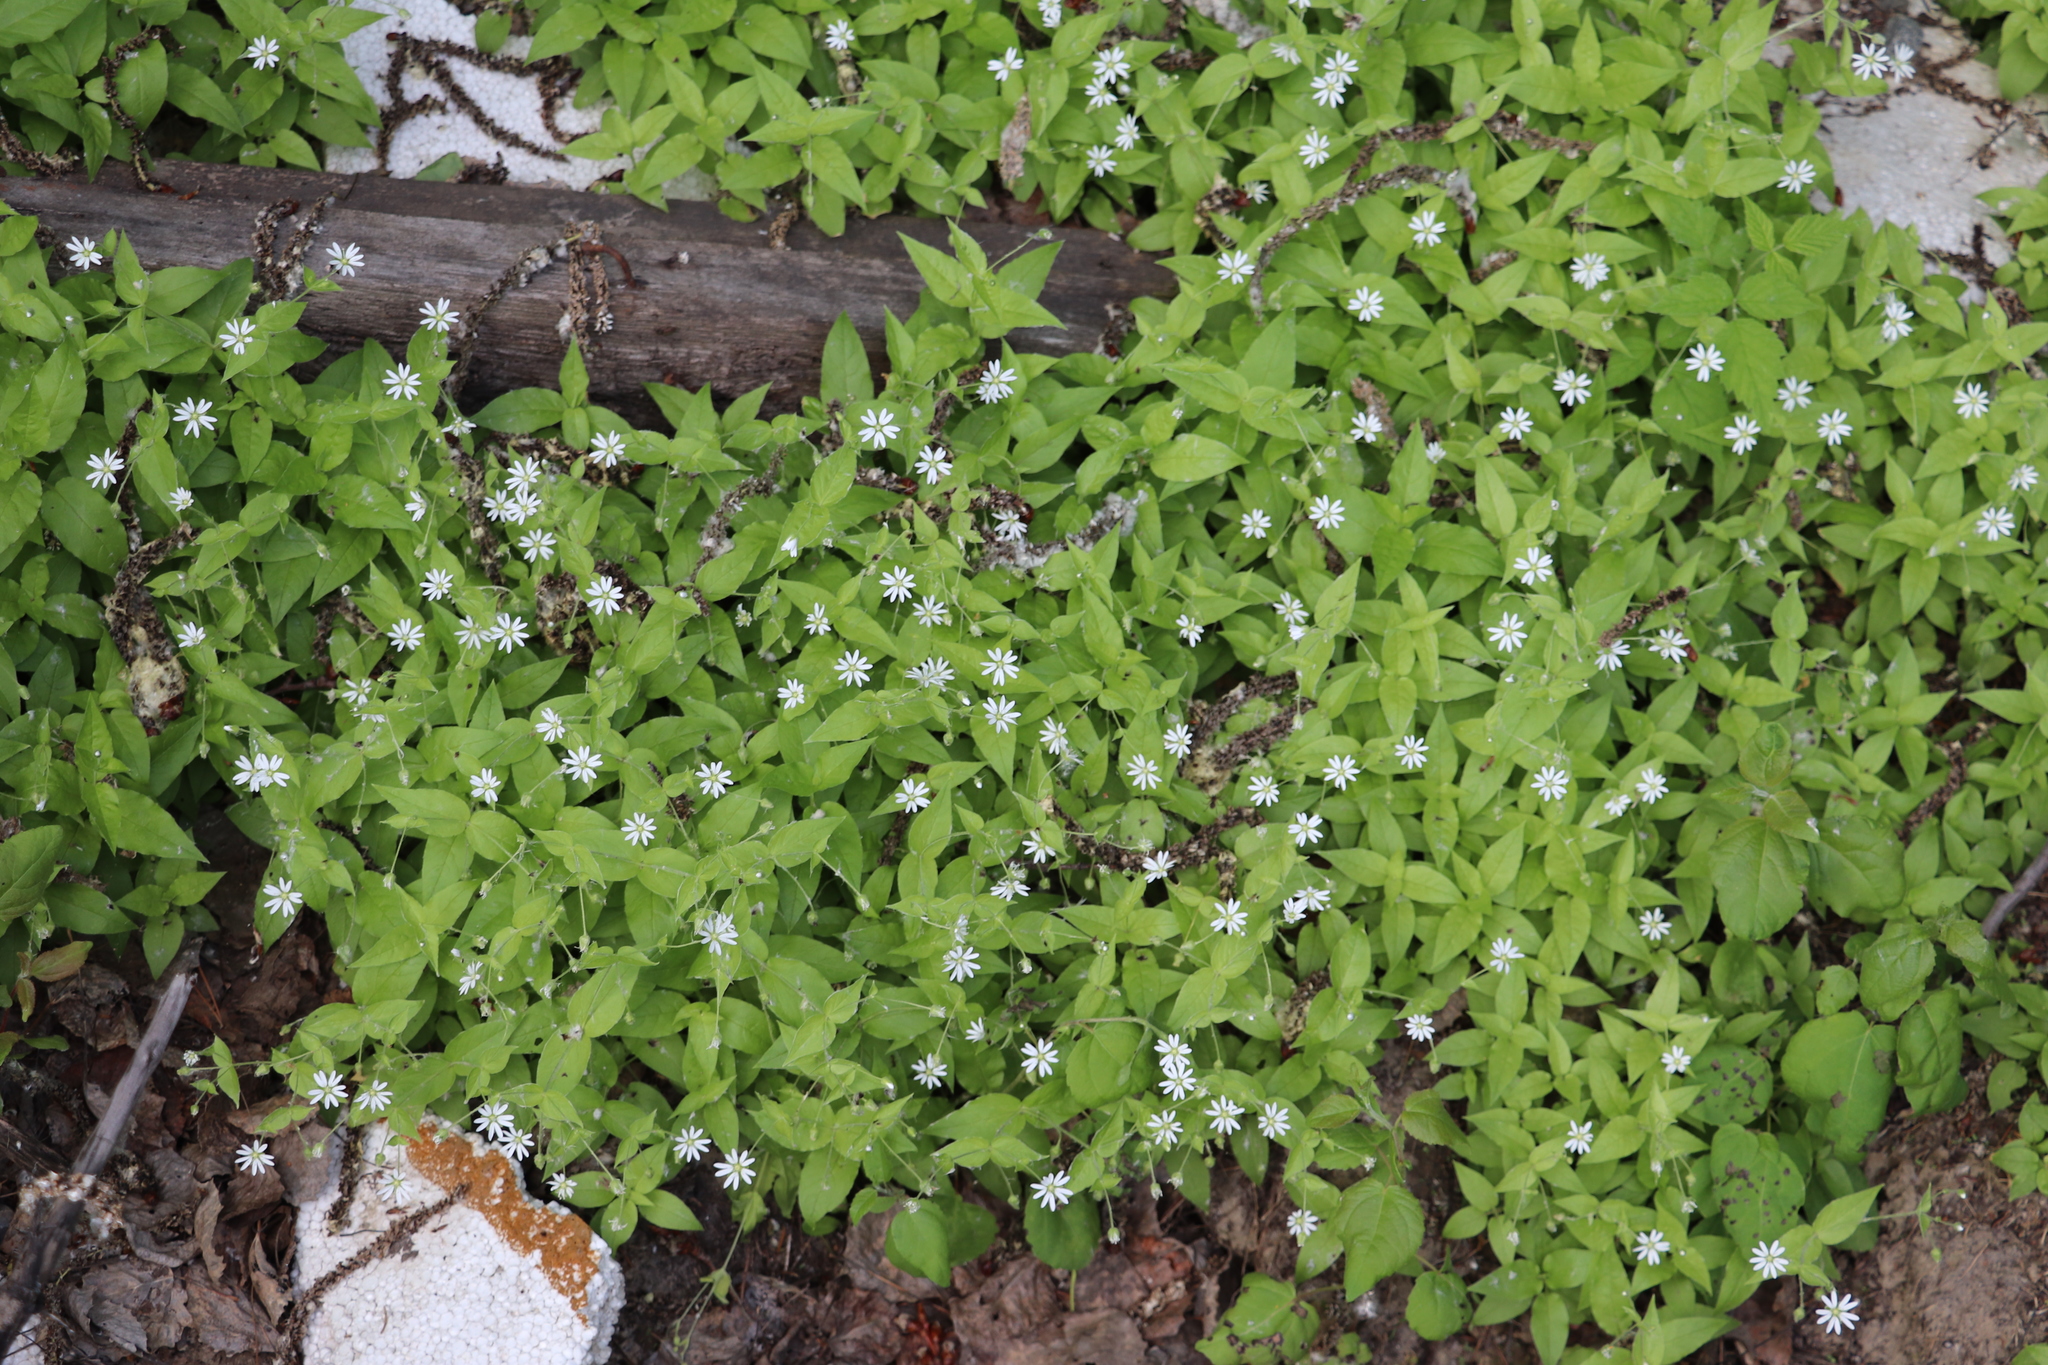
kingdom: Plantae
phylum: Tracheophyta
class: Magnoliopsida
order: Caryophyllales
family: Caryophyllaceae
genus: Stellaria
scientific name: Stellaria bungeana
